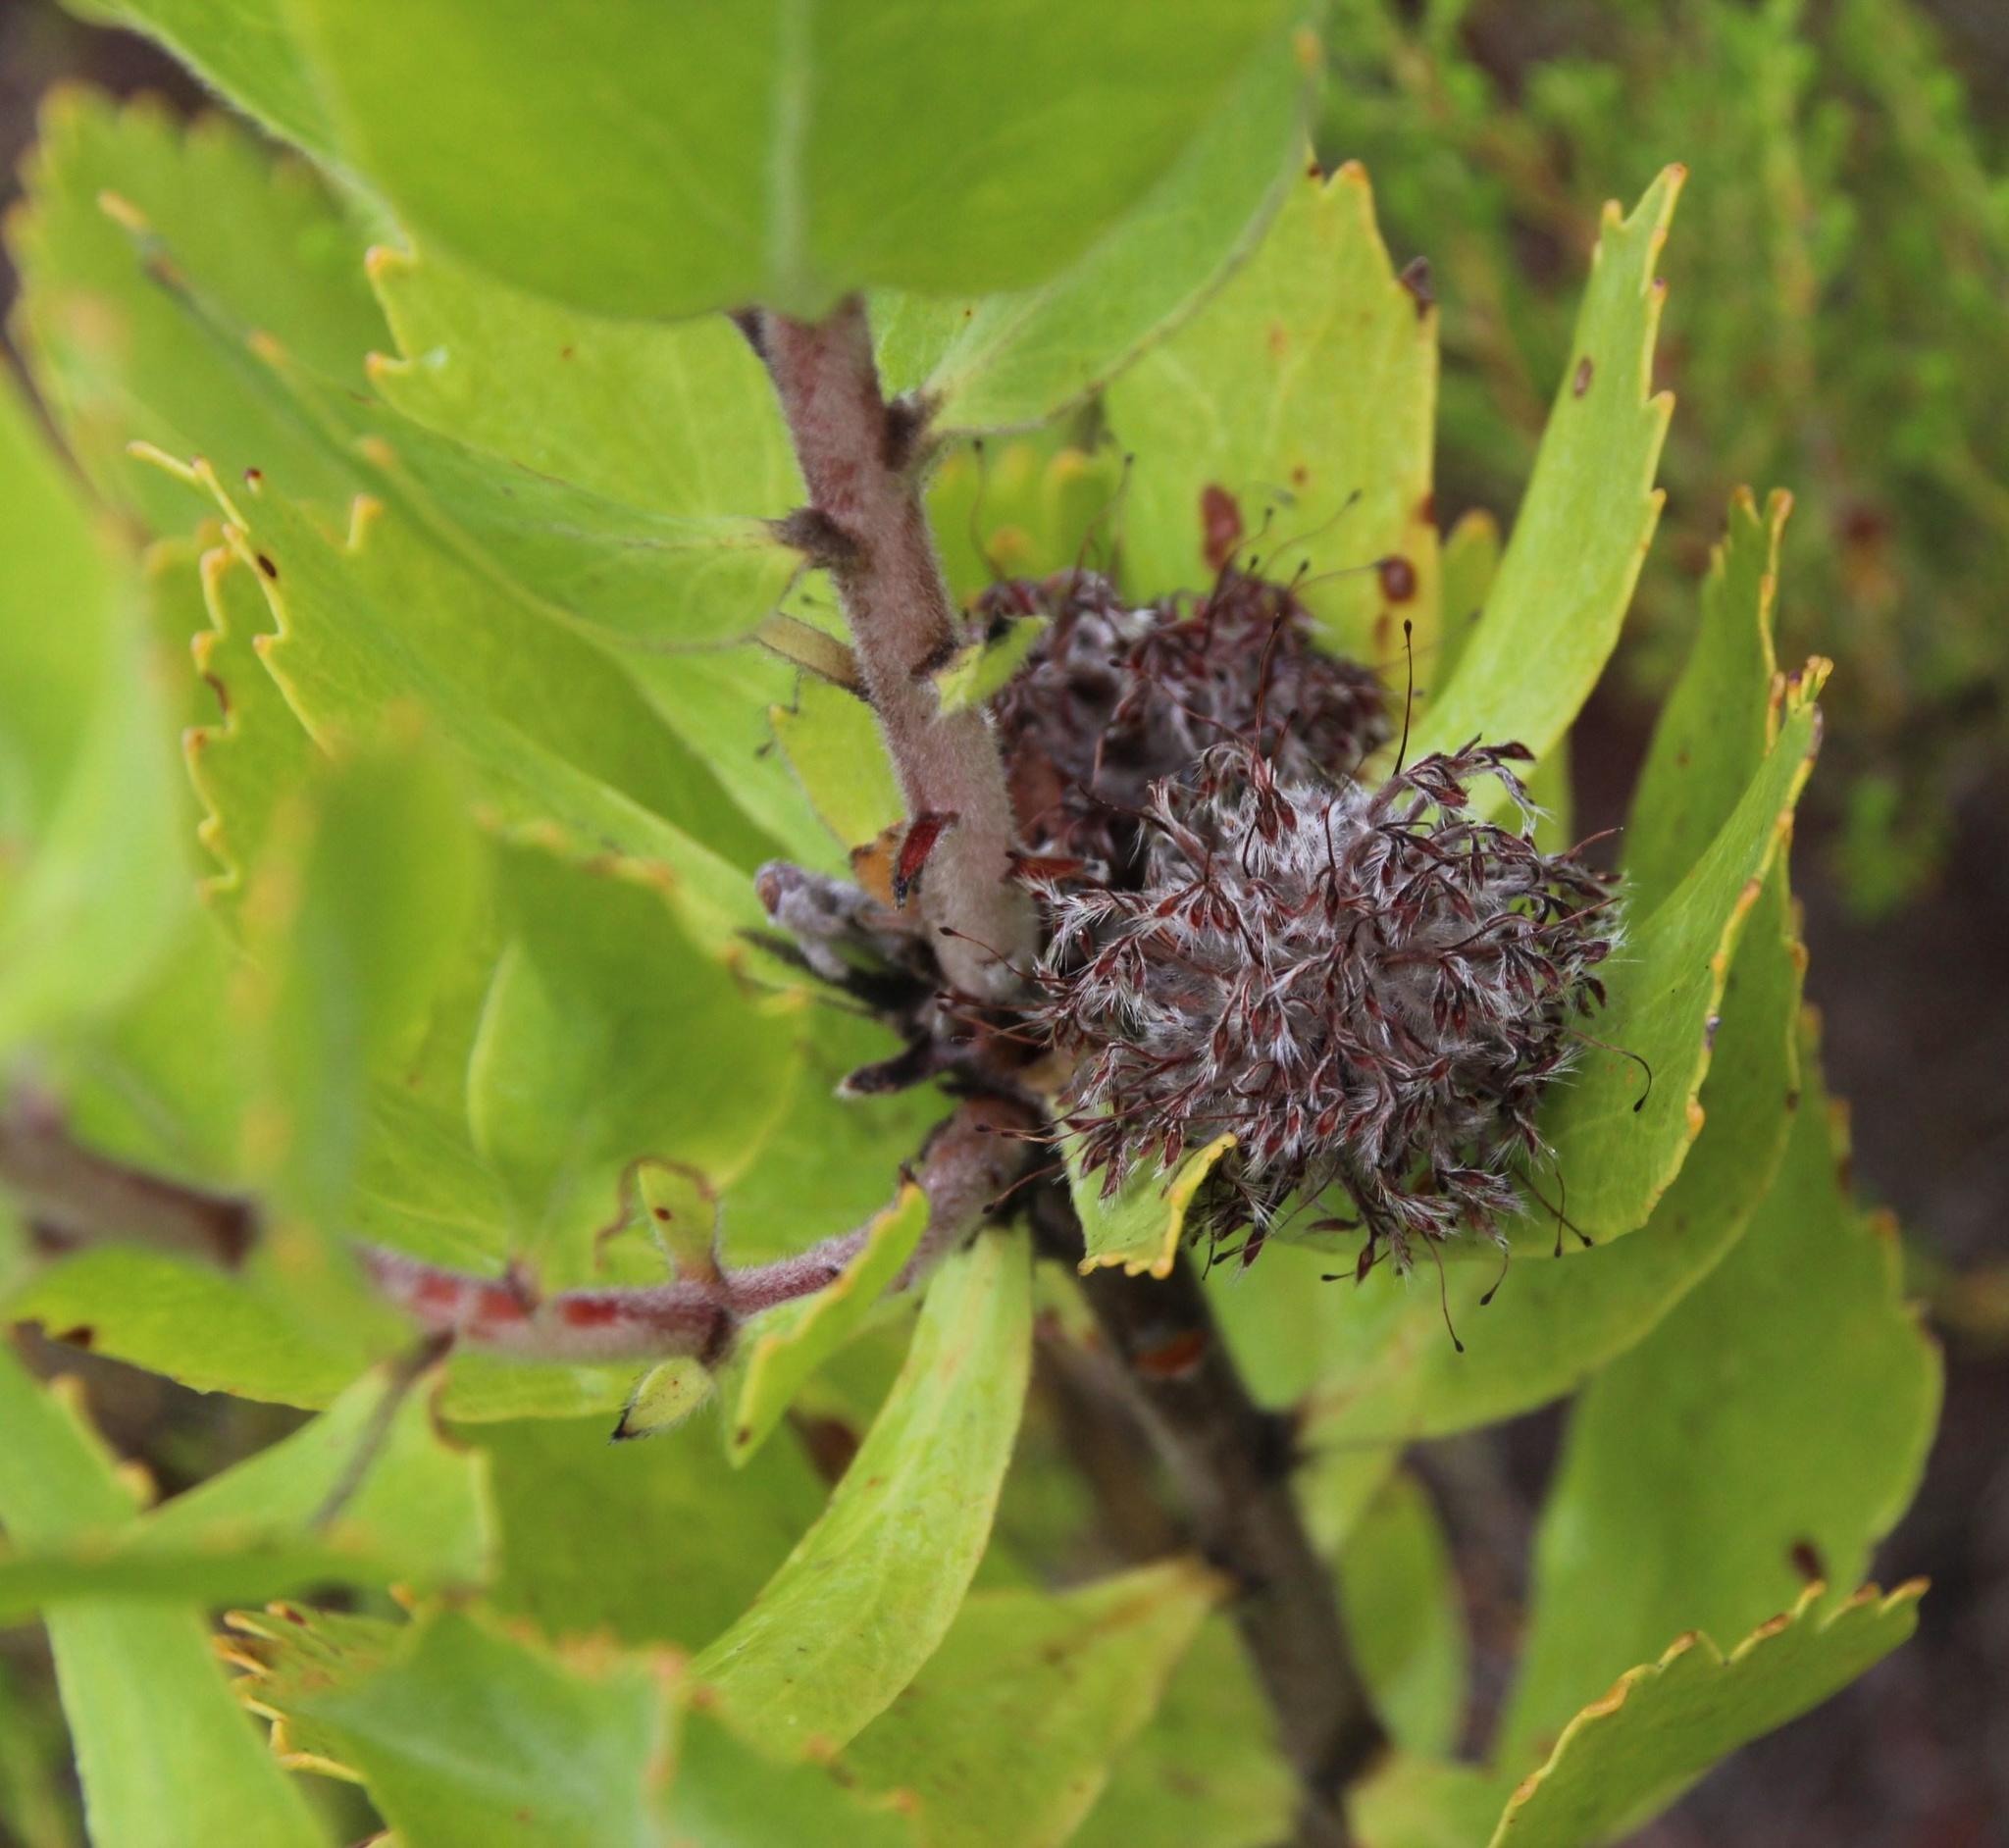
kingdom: Plantae
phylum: Tracheophyta
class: Magnoliopsida
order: Proteales
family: Proteaceae
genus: Leucospermum
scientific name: Leucospermum winteri
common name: Riversdale pincushion
